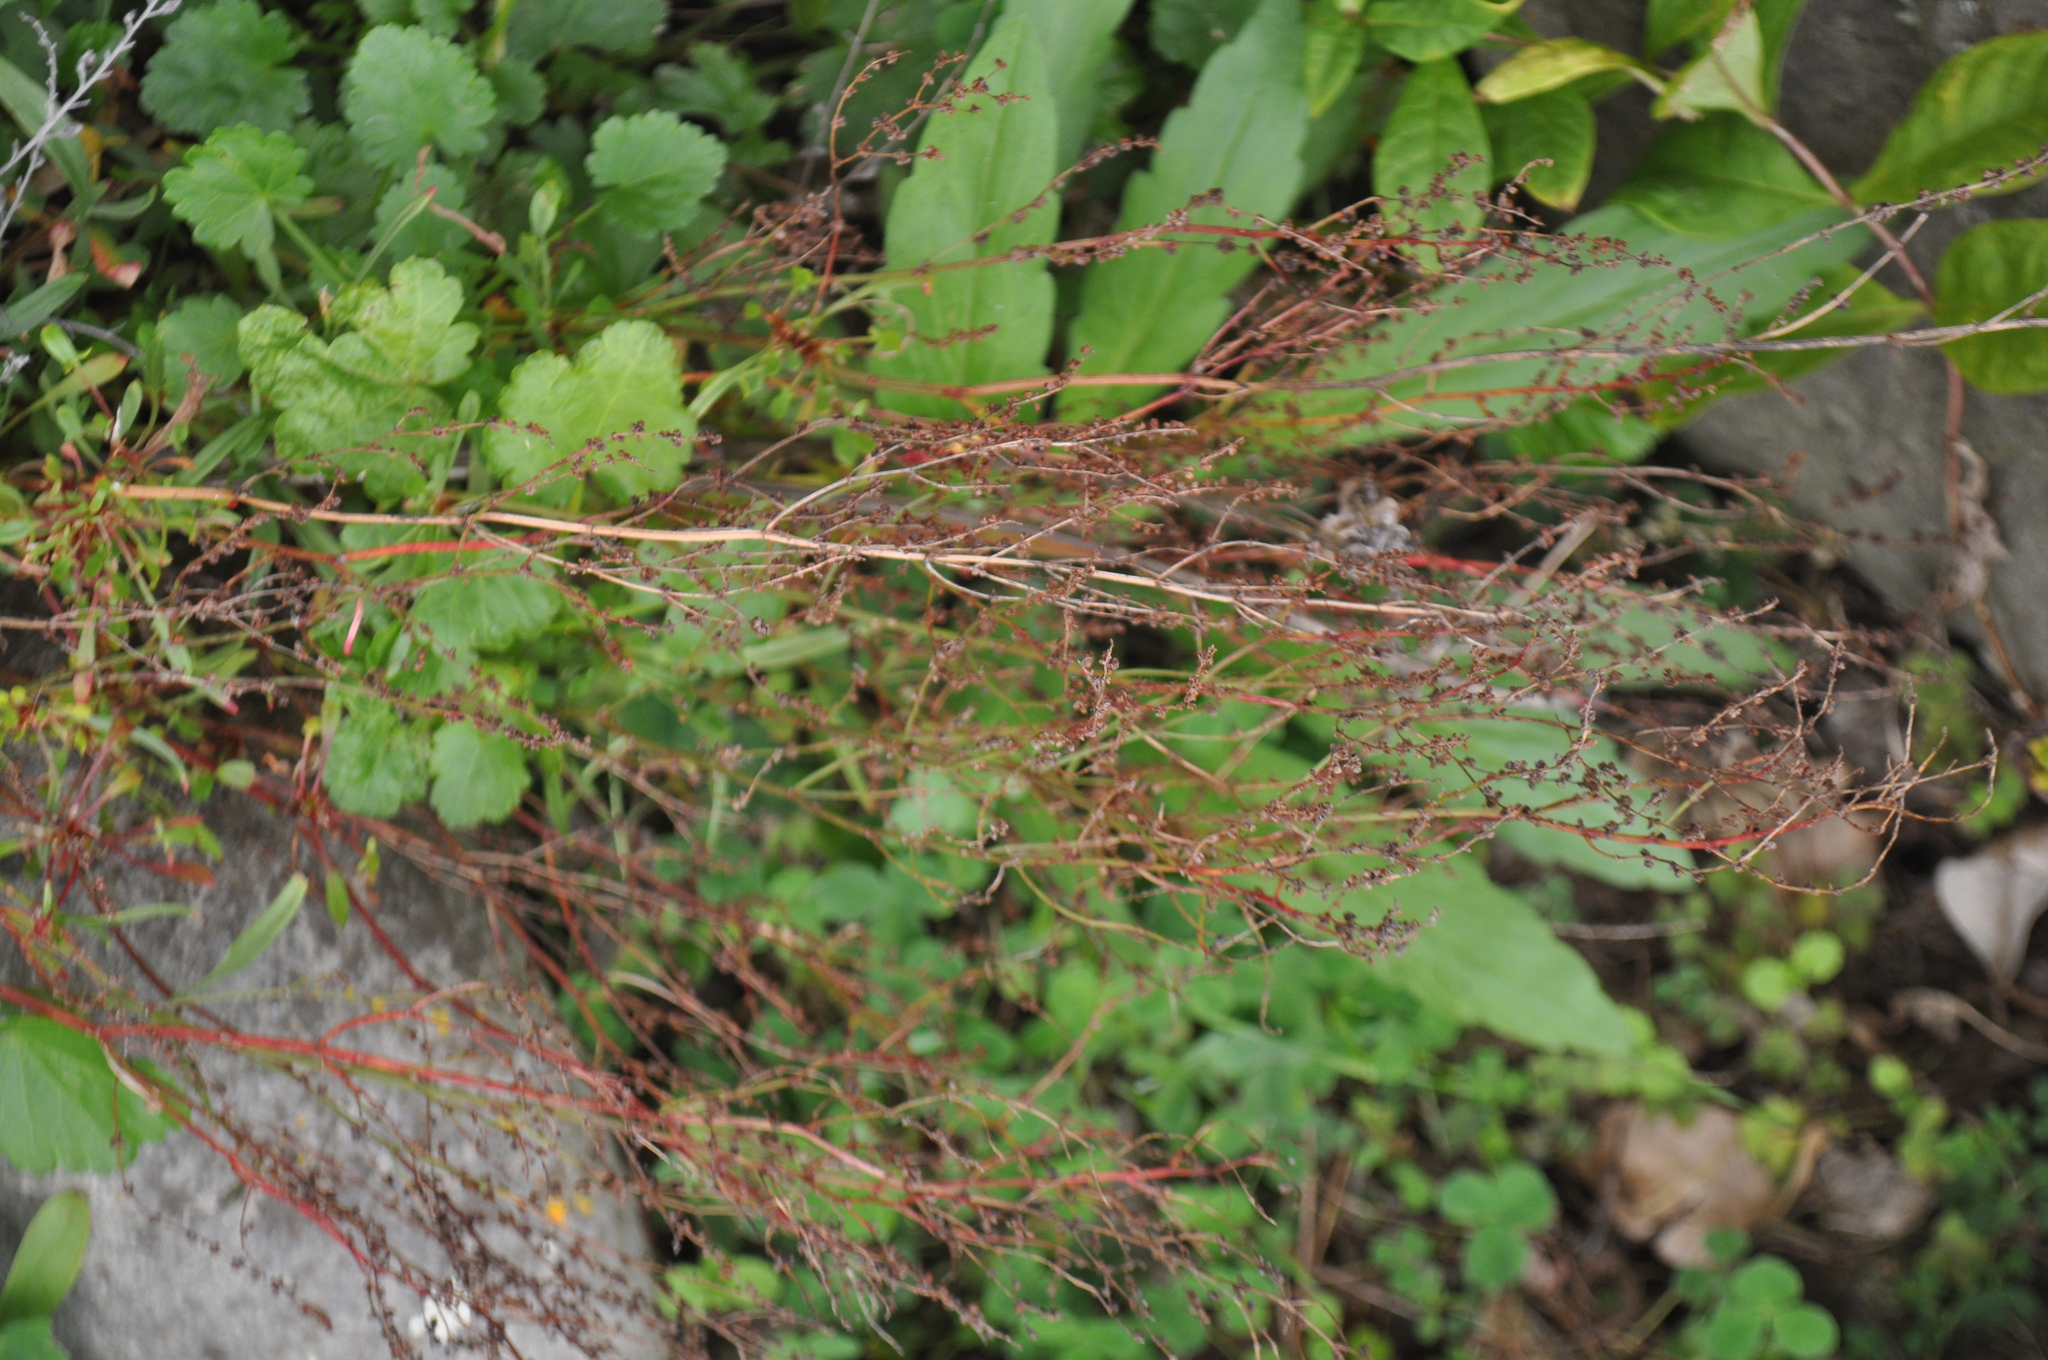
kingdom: Plantae
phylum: Tracheophyta
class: Magnoliopsida
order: Caryophyllales
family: Polygonaceae
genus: Rumex
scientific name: Rumex acetosella
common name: Common sheep sorrel
